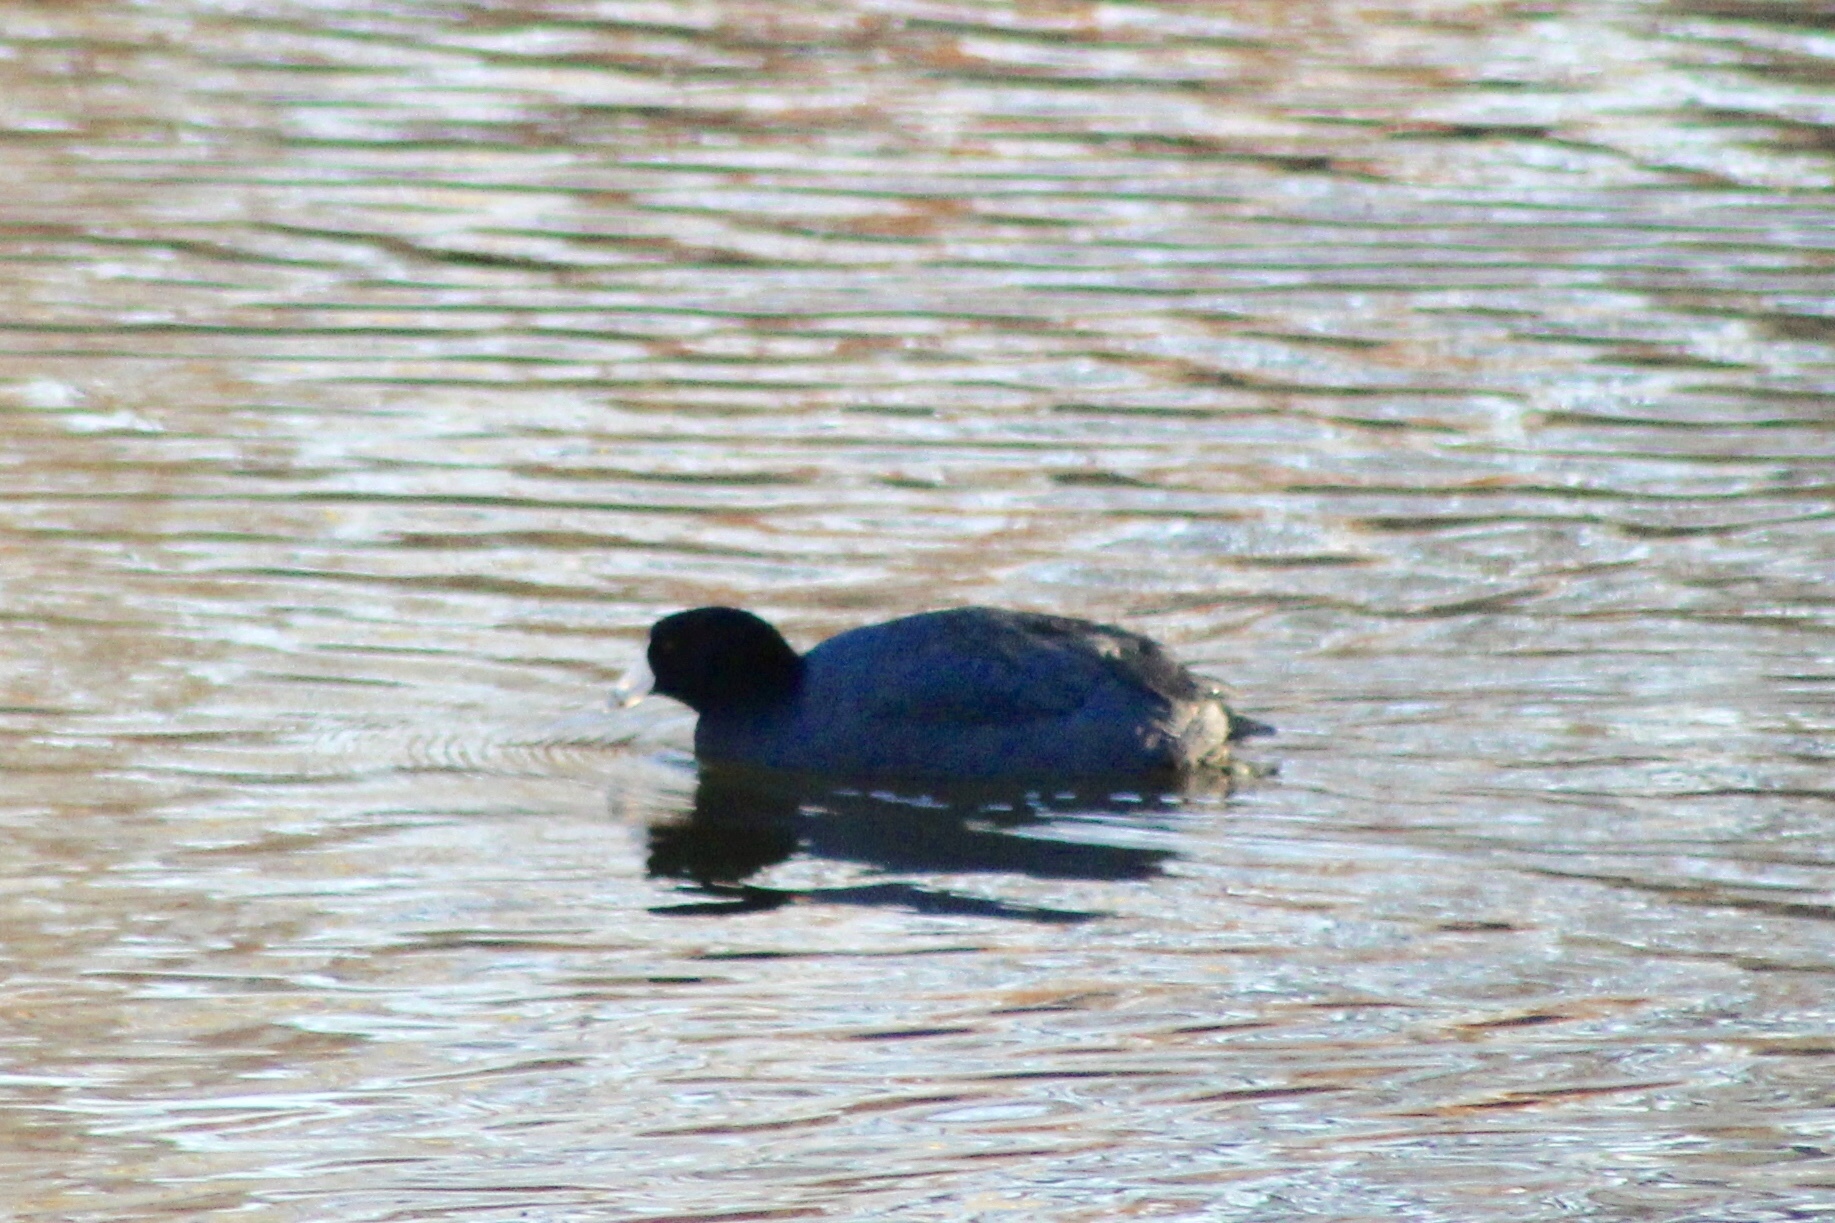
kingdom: Animalia
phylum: Chordata
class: Aves
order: Gruiformes
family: Rallidae
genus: Fulica
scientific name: Fulica americana
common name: American coot
